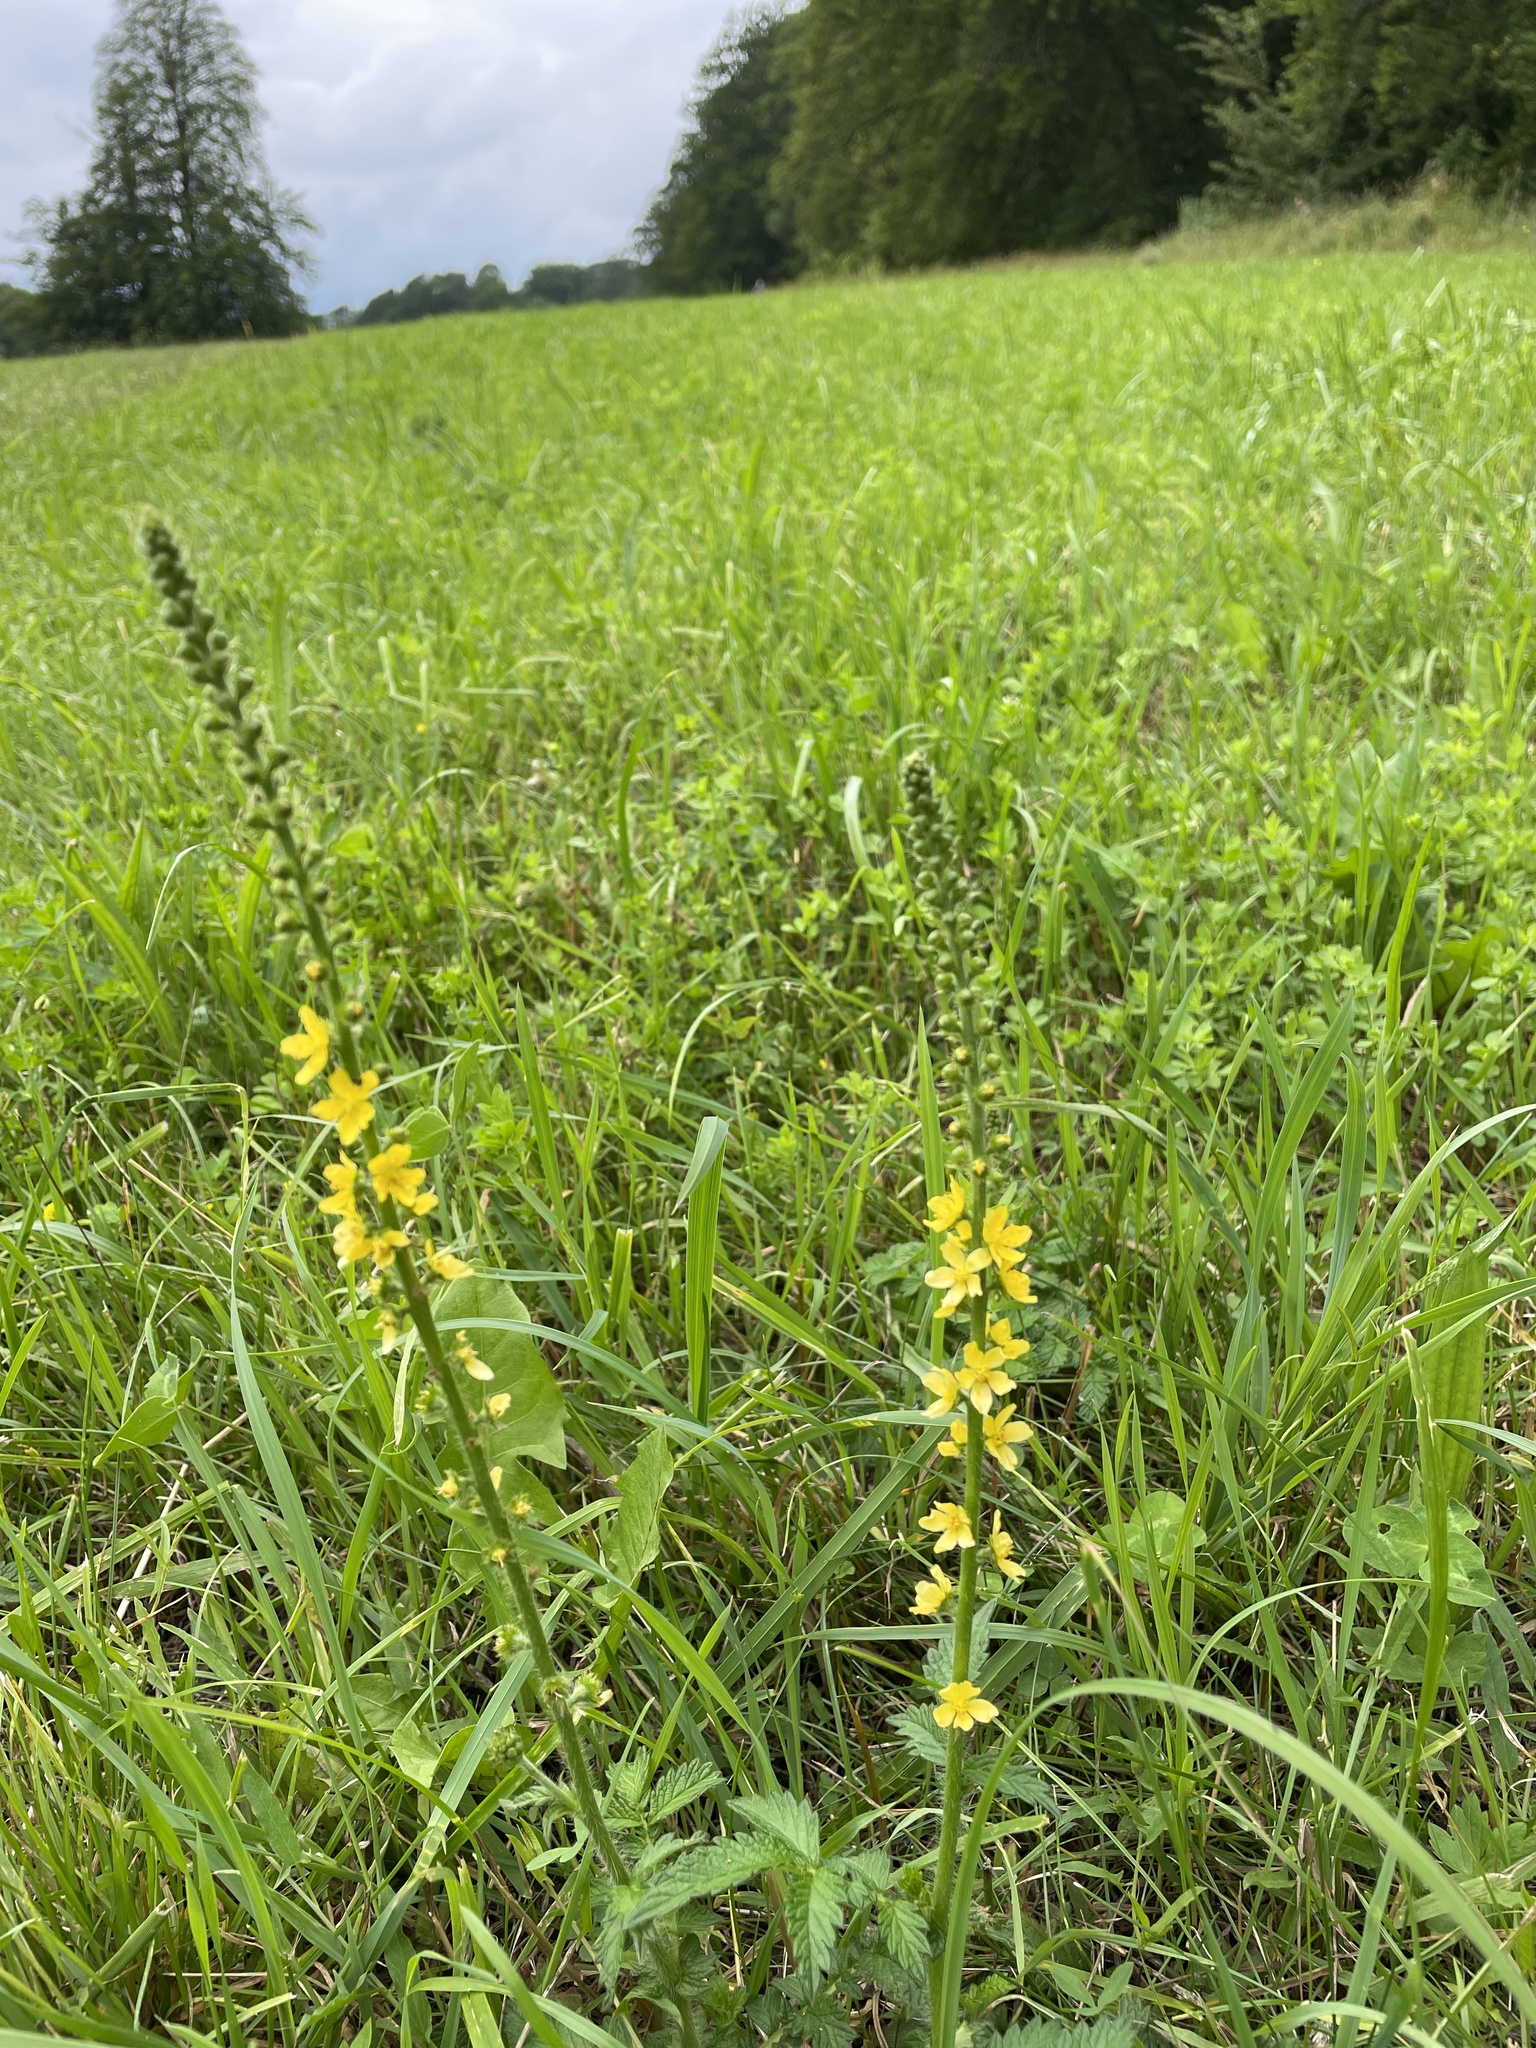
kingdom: Plantae
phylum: Tracheophyta
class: Magnoliopsida
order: Rosales
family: Rosaceae
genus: Agrimonia
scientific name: Agrimonia eupatoria
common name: Agrimony
